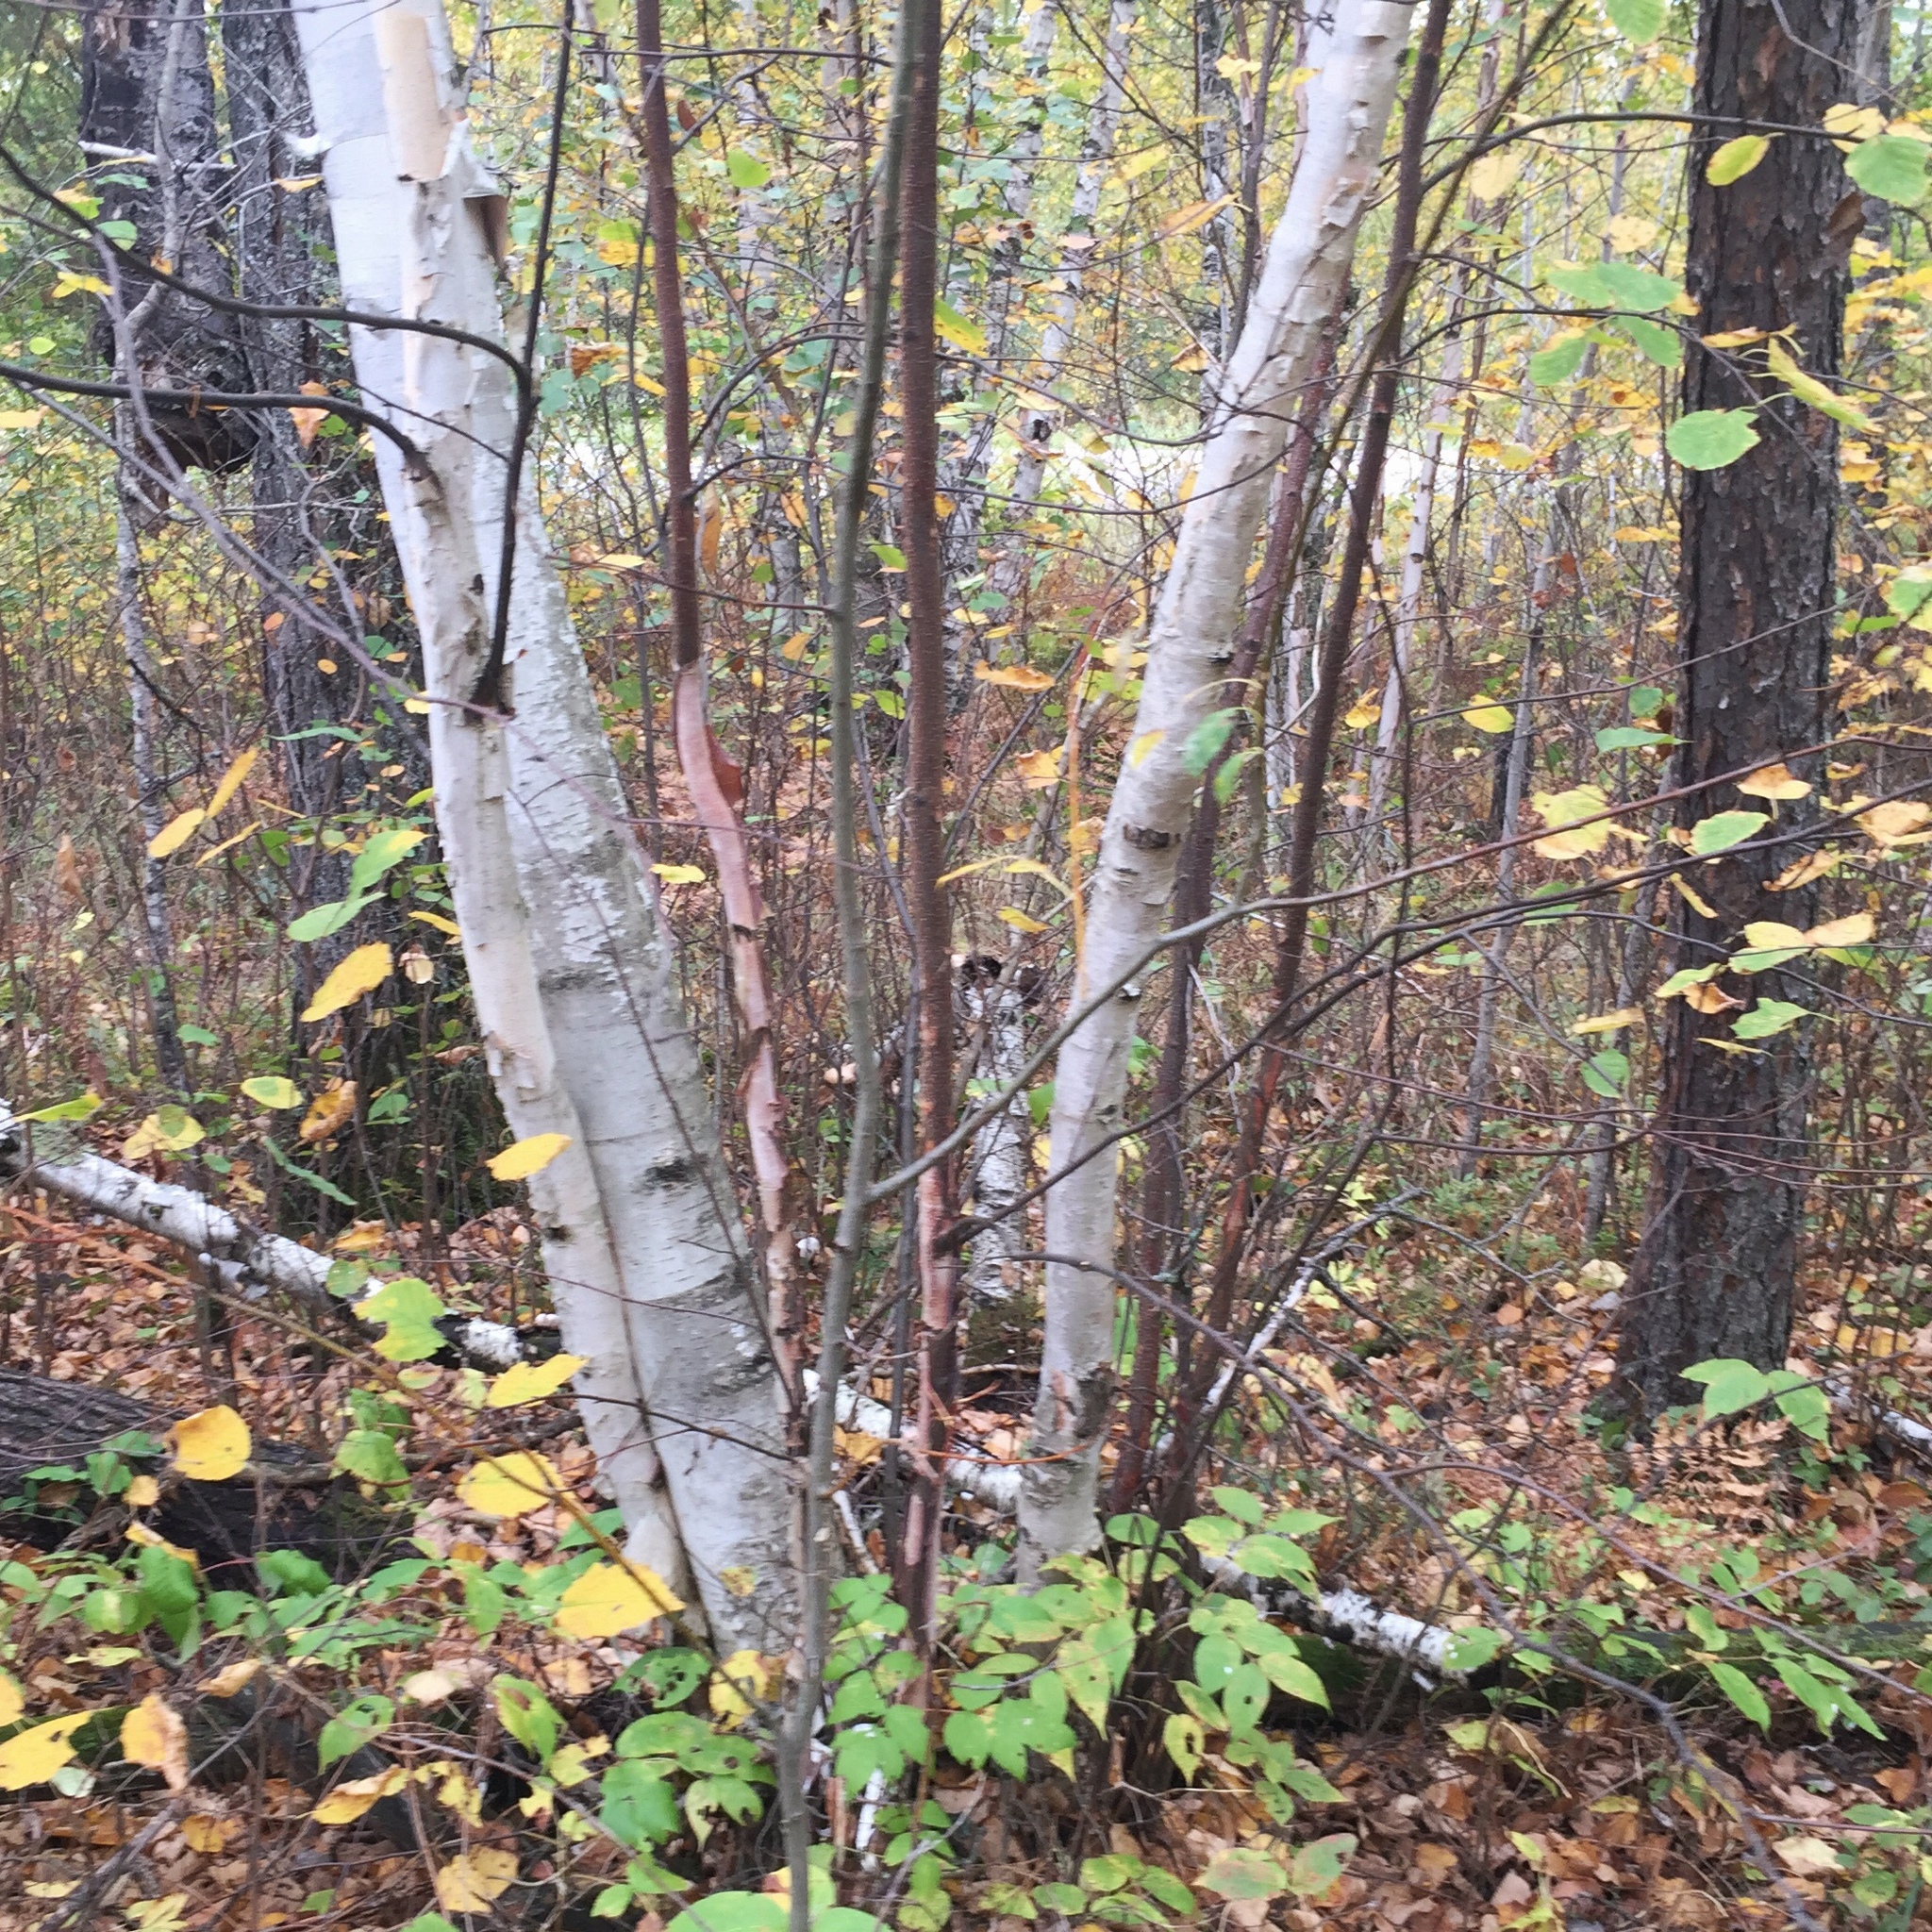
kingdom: Plantae
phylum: Tracheophyta
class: Magnoliopsida
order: Fagales
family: Betulaceae
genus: Betula
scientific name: Betula papyrifera
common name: Paper birch
